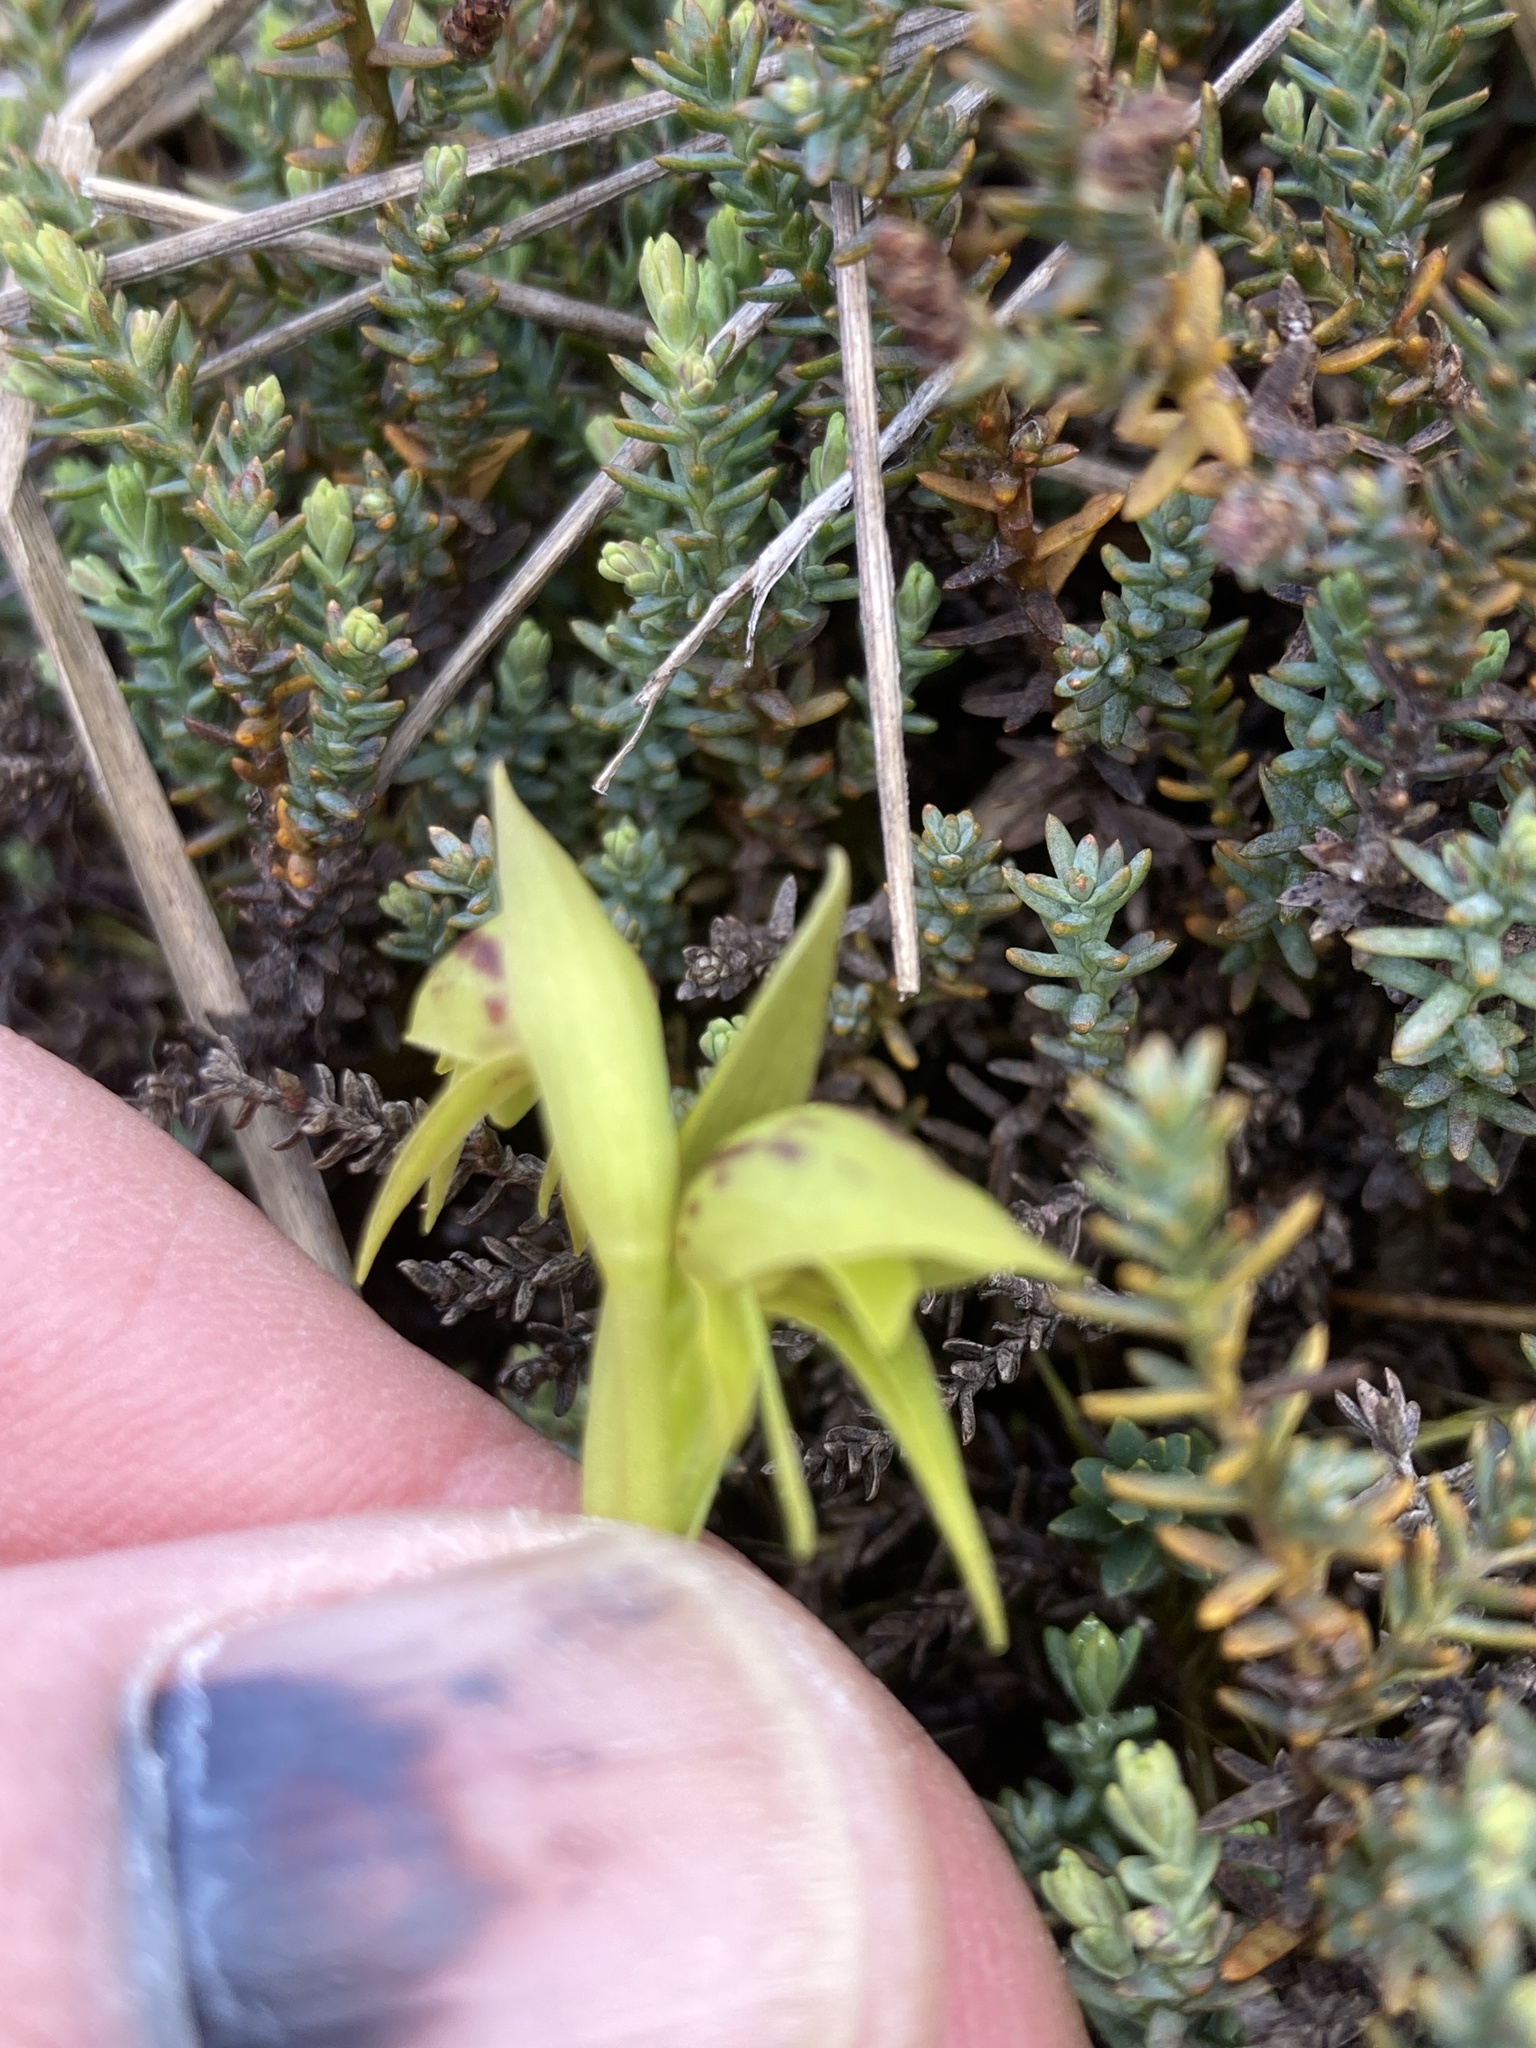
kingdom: Plantae
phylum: Tracheophyta
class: Liliopsida
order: Asparagales
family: Orchidaceae
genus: Waireia
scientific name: Waireia stenopetala
